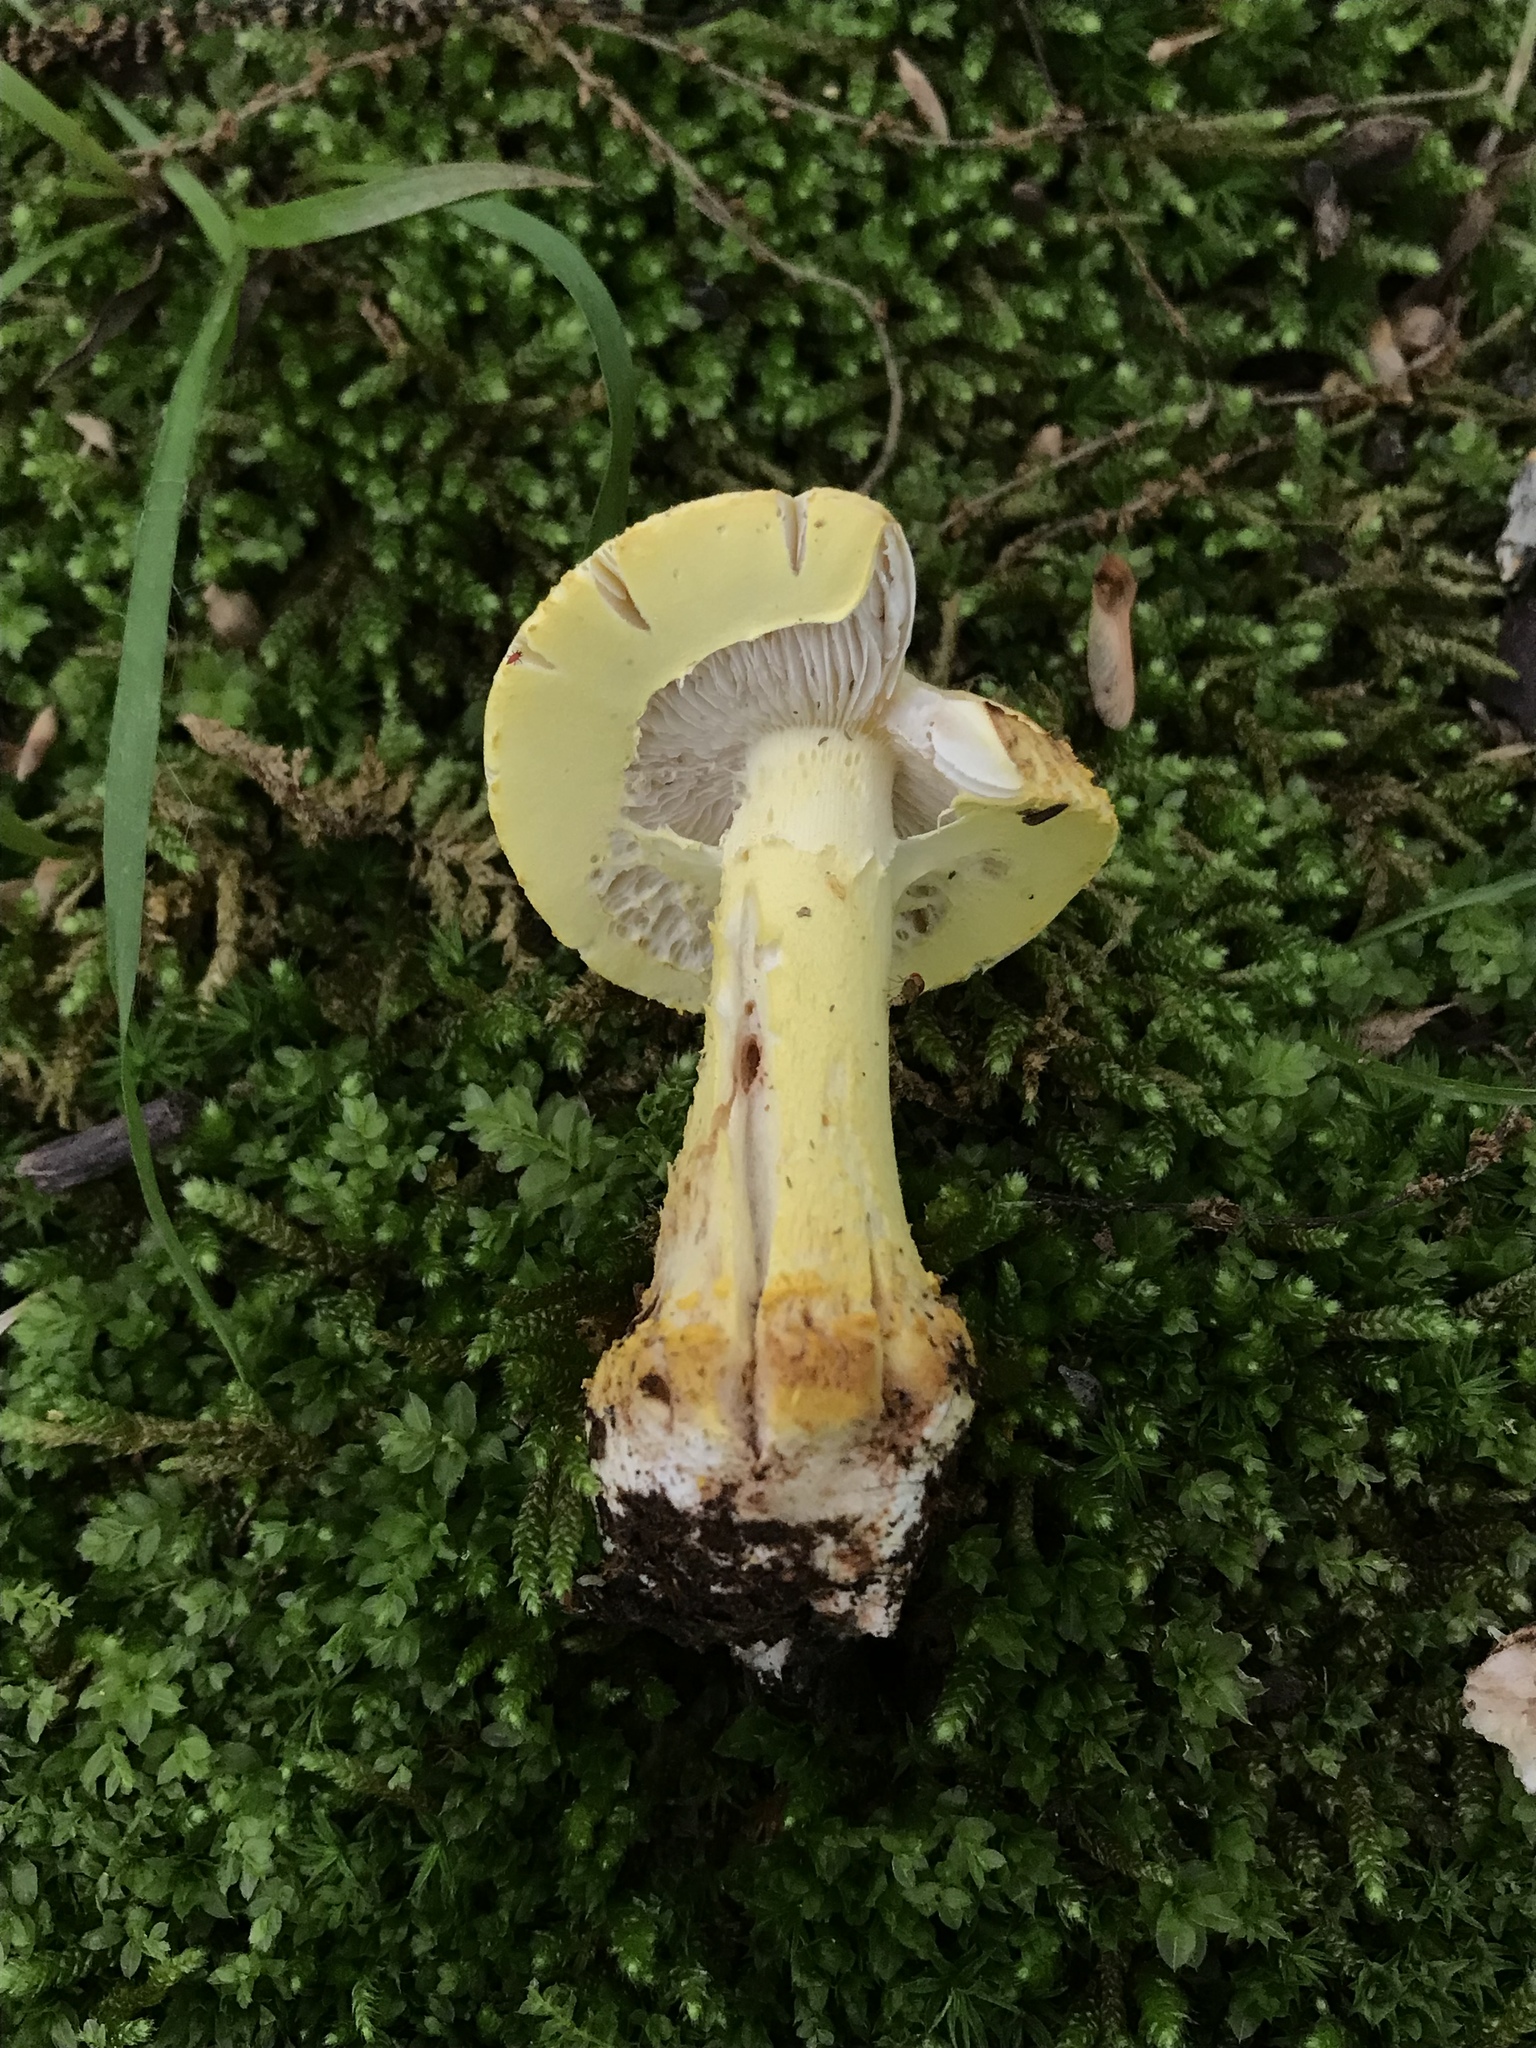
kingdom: Fungi
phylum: Basidiomycota
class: Agaricomycetes
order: Agaricales
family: Amanitaceae
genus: Amanita
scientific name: Amanita flavorubens
